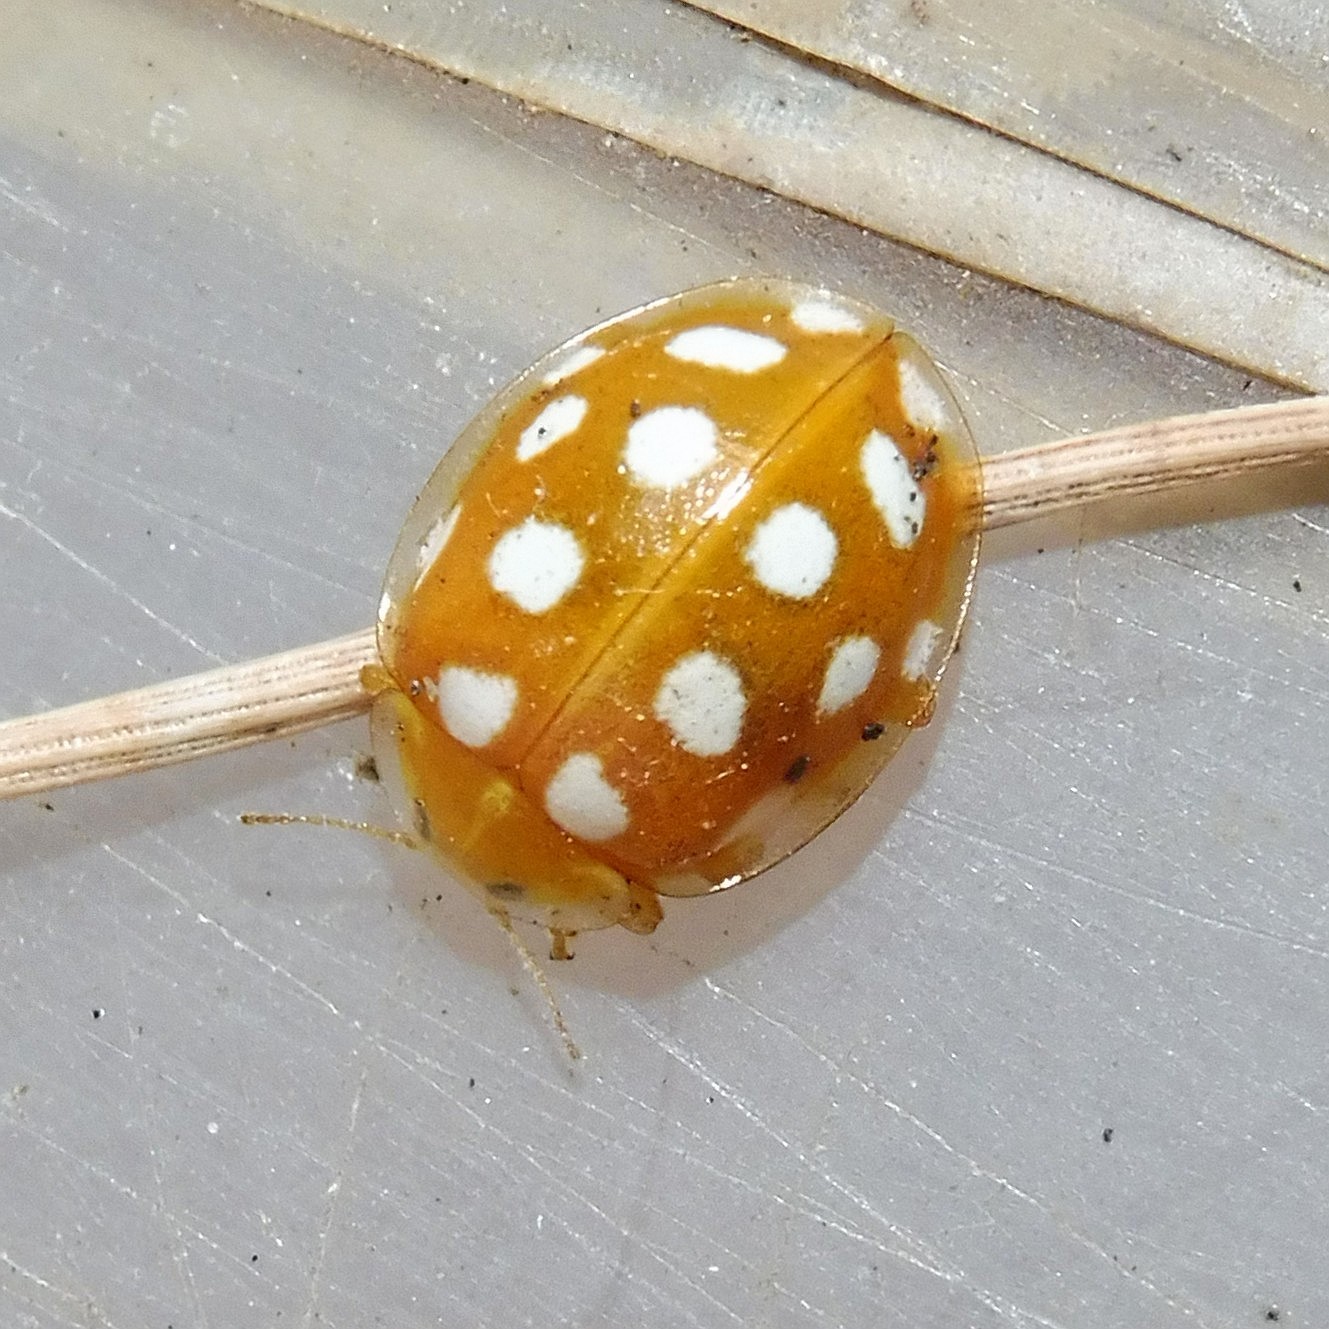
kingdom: Animalia
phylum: Arthropoda
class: Insecta
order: Coleoptera
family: Coccinellidae
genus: Halyzia
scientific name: Halyzia sedecimguttata
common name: Orange ladybird
